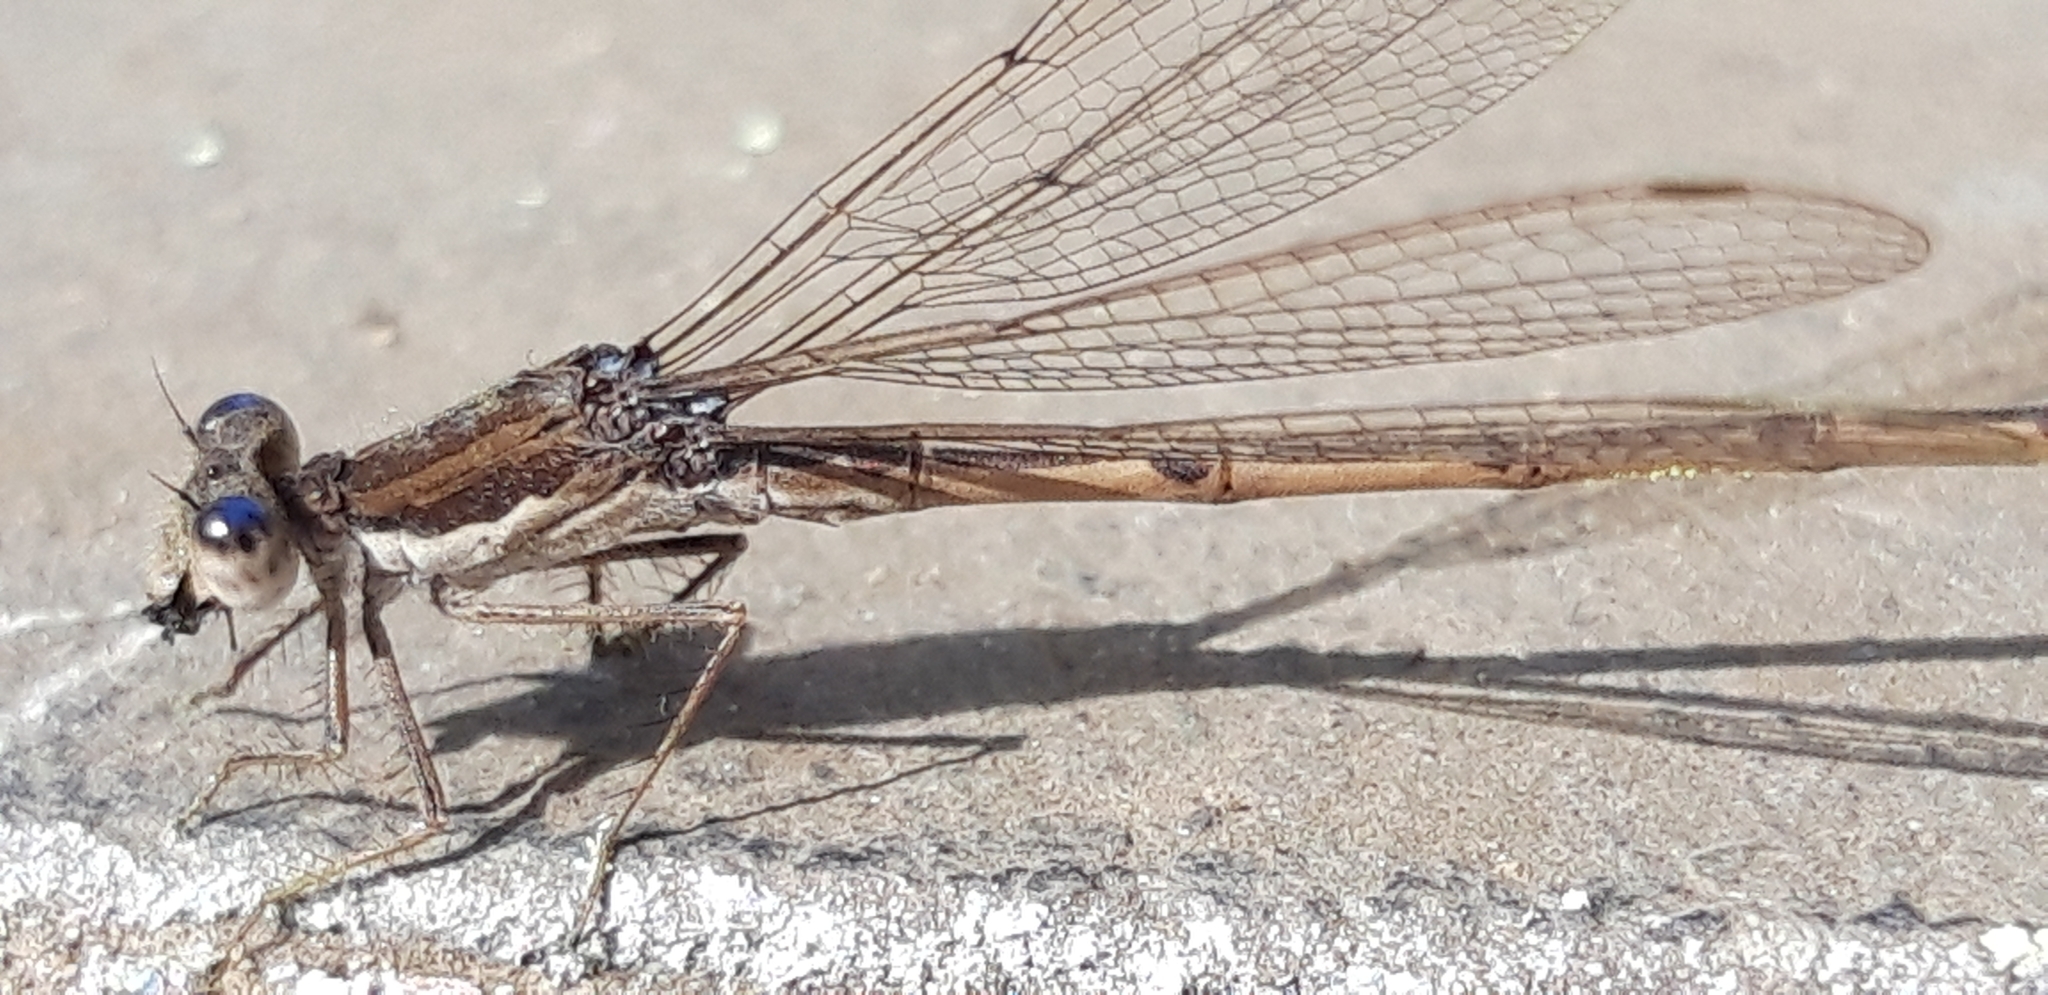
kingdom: Animalia
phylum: Arthropoda
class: Insecta
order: Odonata
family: Lestidae
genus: Sympecma
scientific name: Sympecma fusca
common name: Common winter damsel
